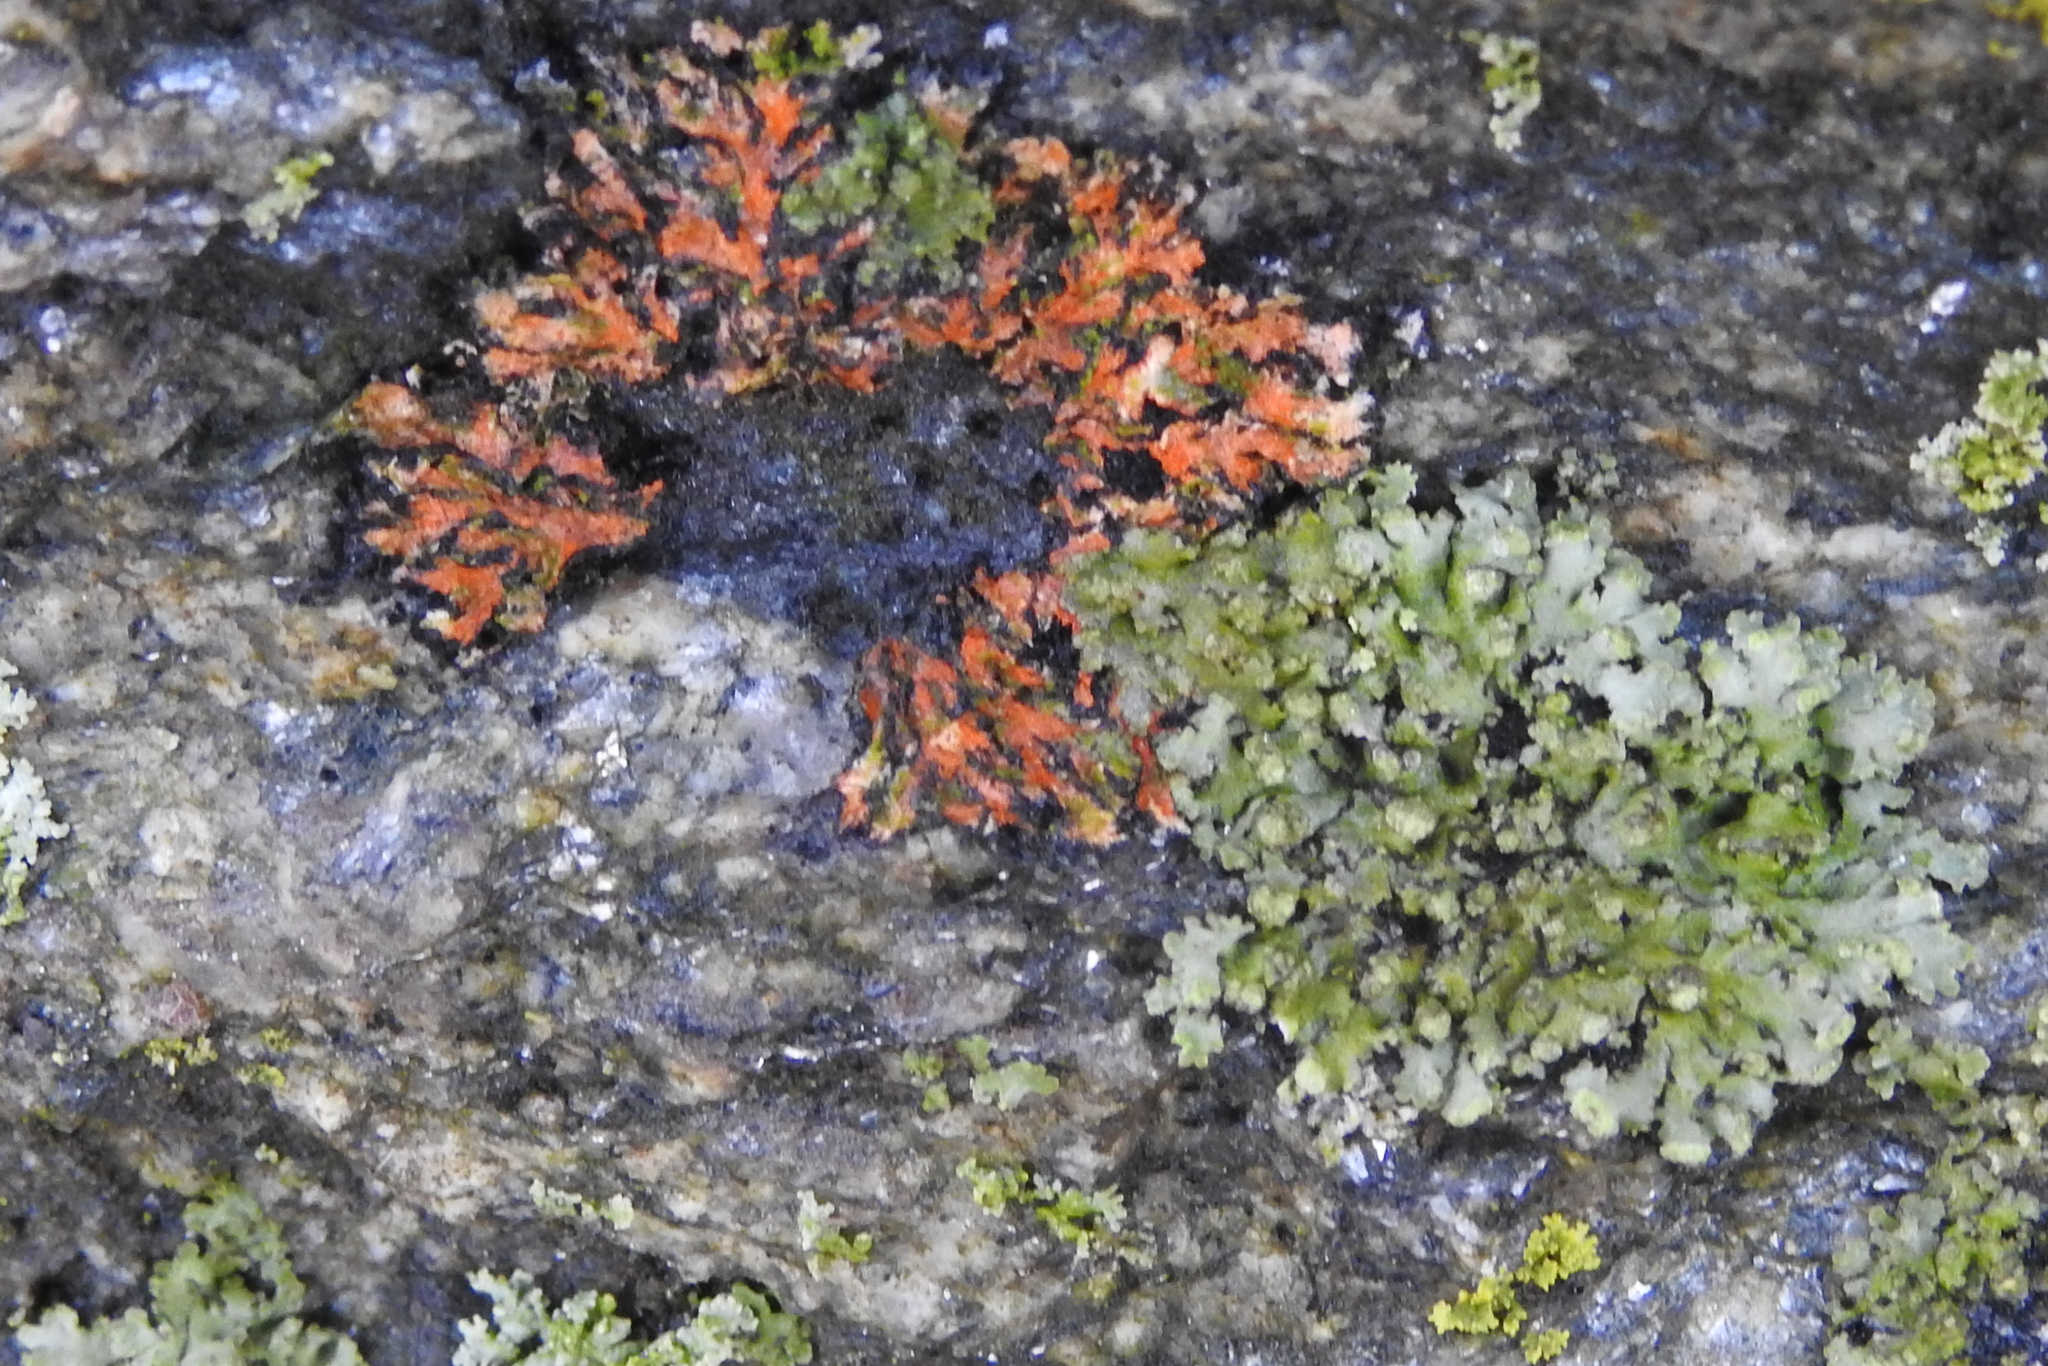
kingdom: Fungi
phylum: Ascomycota
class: Lecanoromycetes
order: Caliciales
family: Physciaceae
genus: Phaeophyscia
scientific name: Phaeophyscia rubropulchra
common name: Orange-cored shadow lichen
